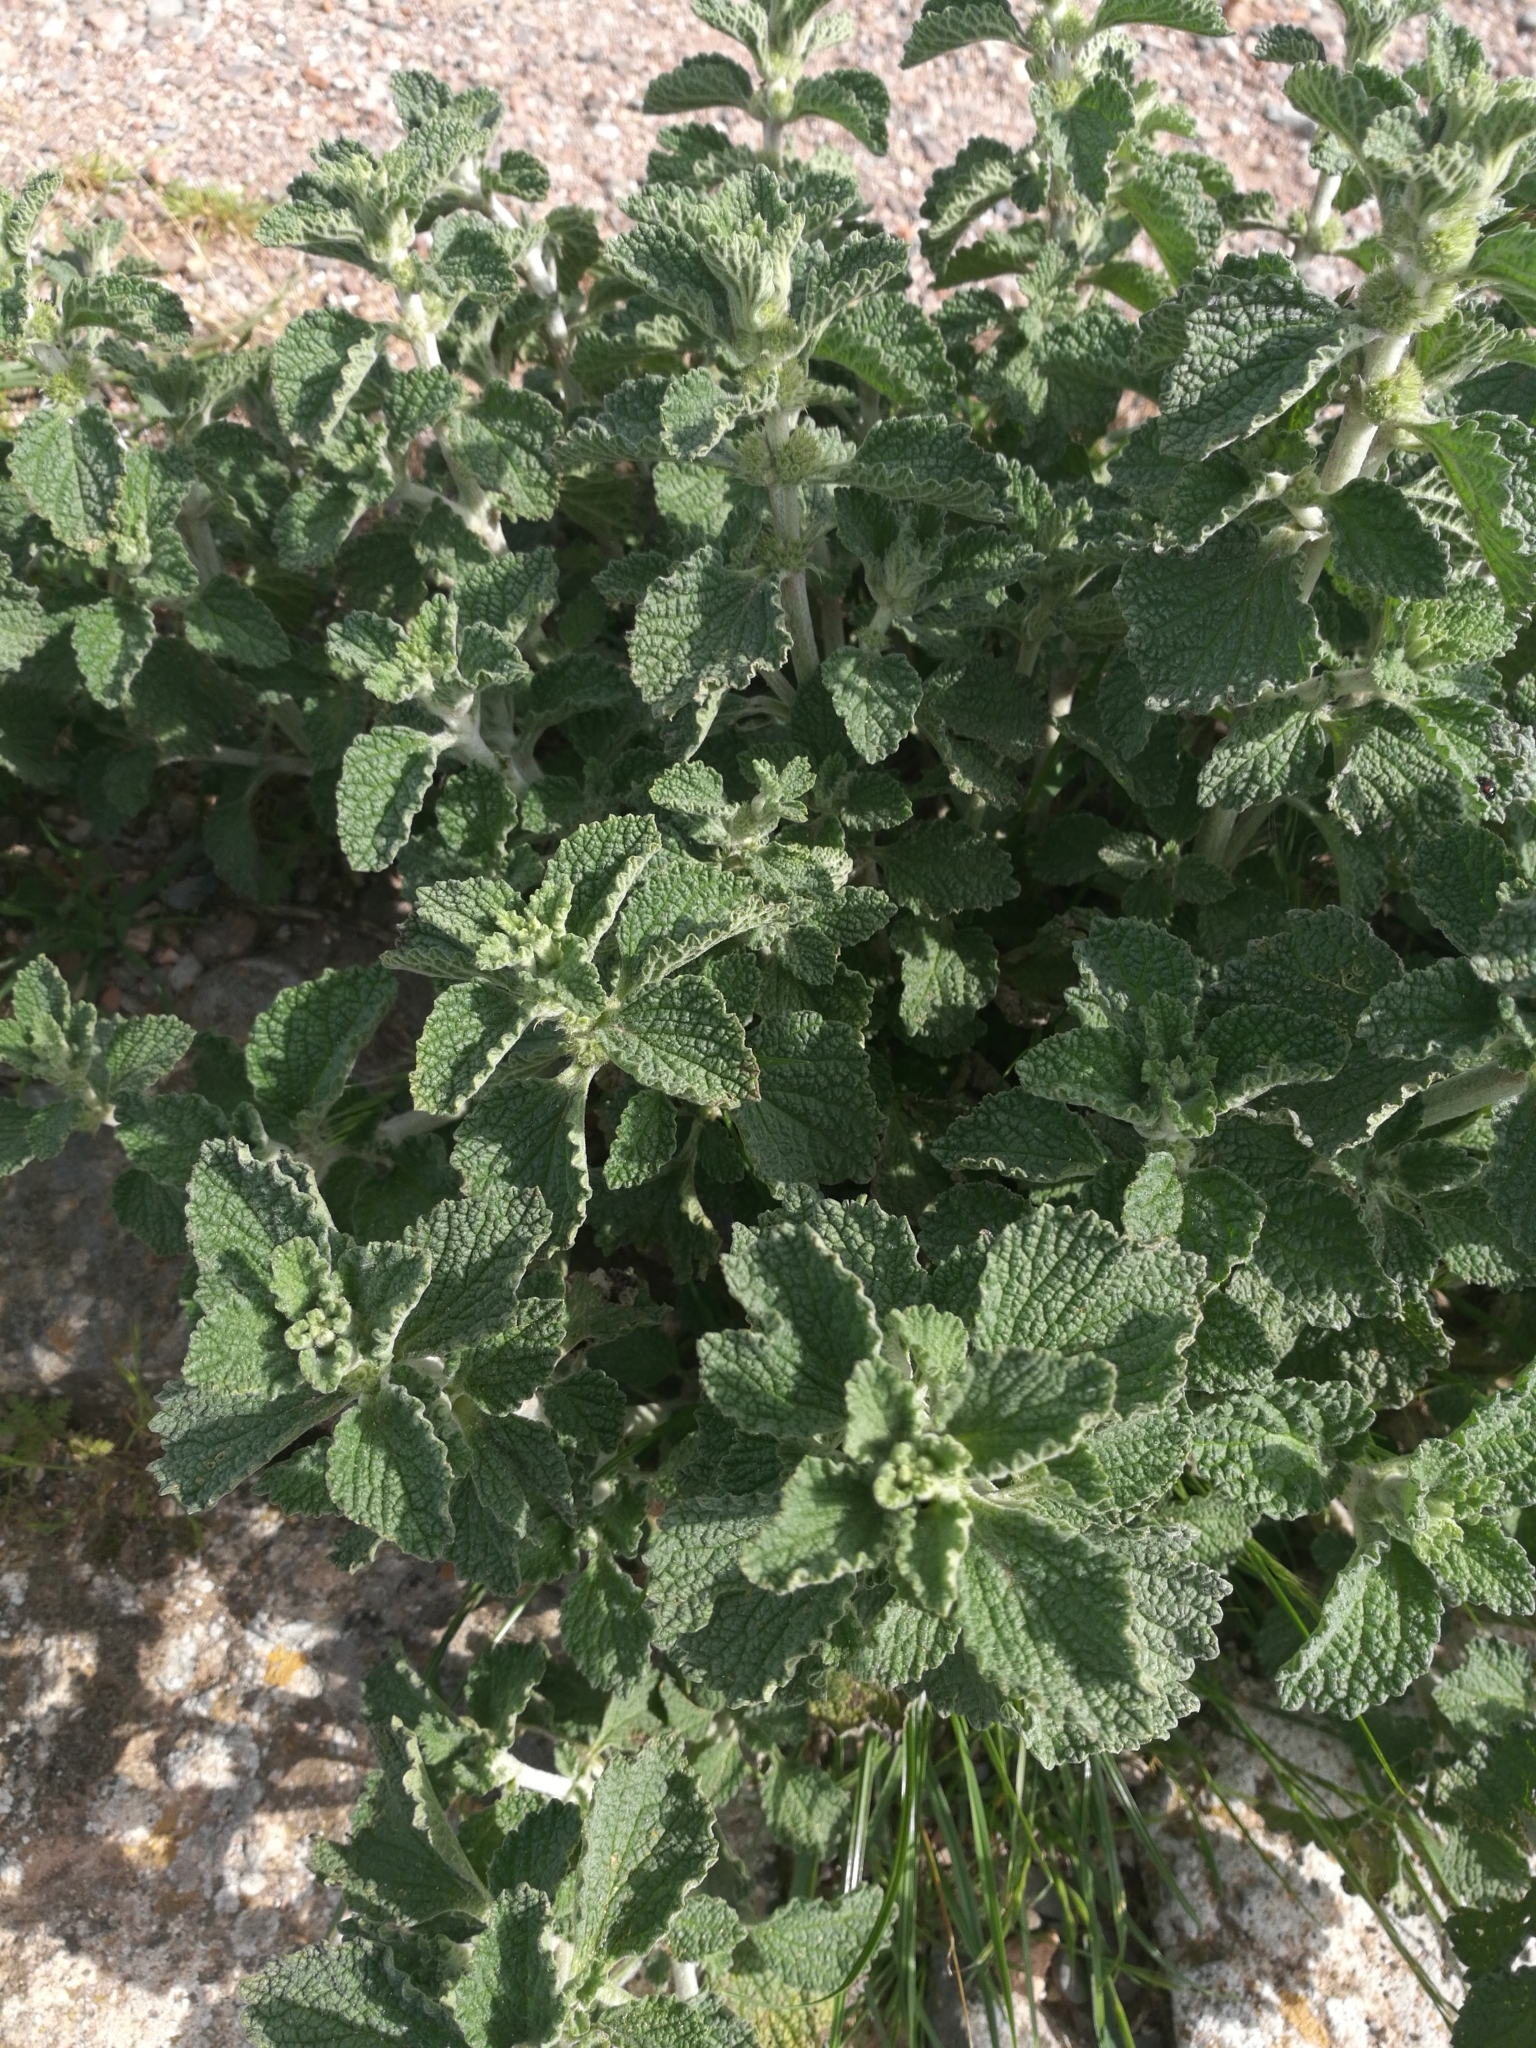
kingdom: Plantae
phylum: Tracheophyta
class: Magnoliopsida
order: Lamiales
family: Lamiaceae
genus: Marrubium
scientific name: Marrubium vulgare
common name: Horehound
